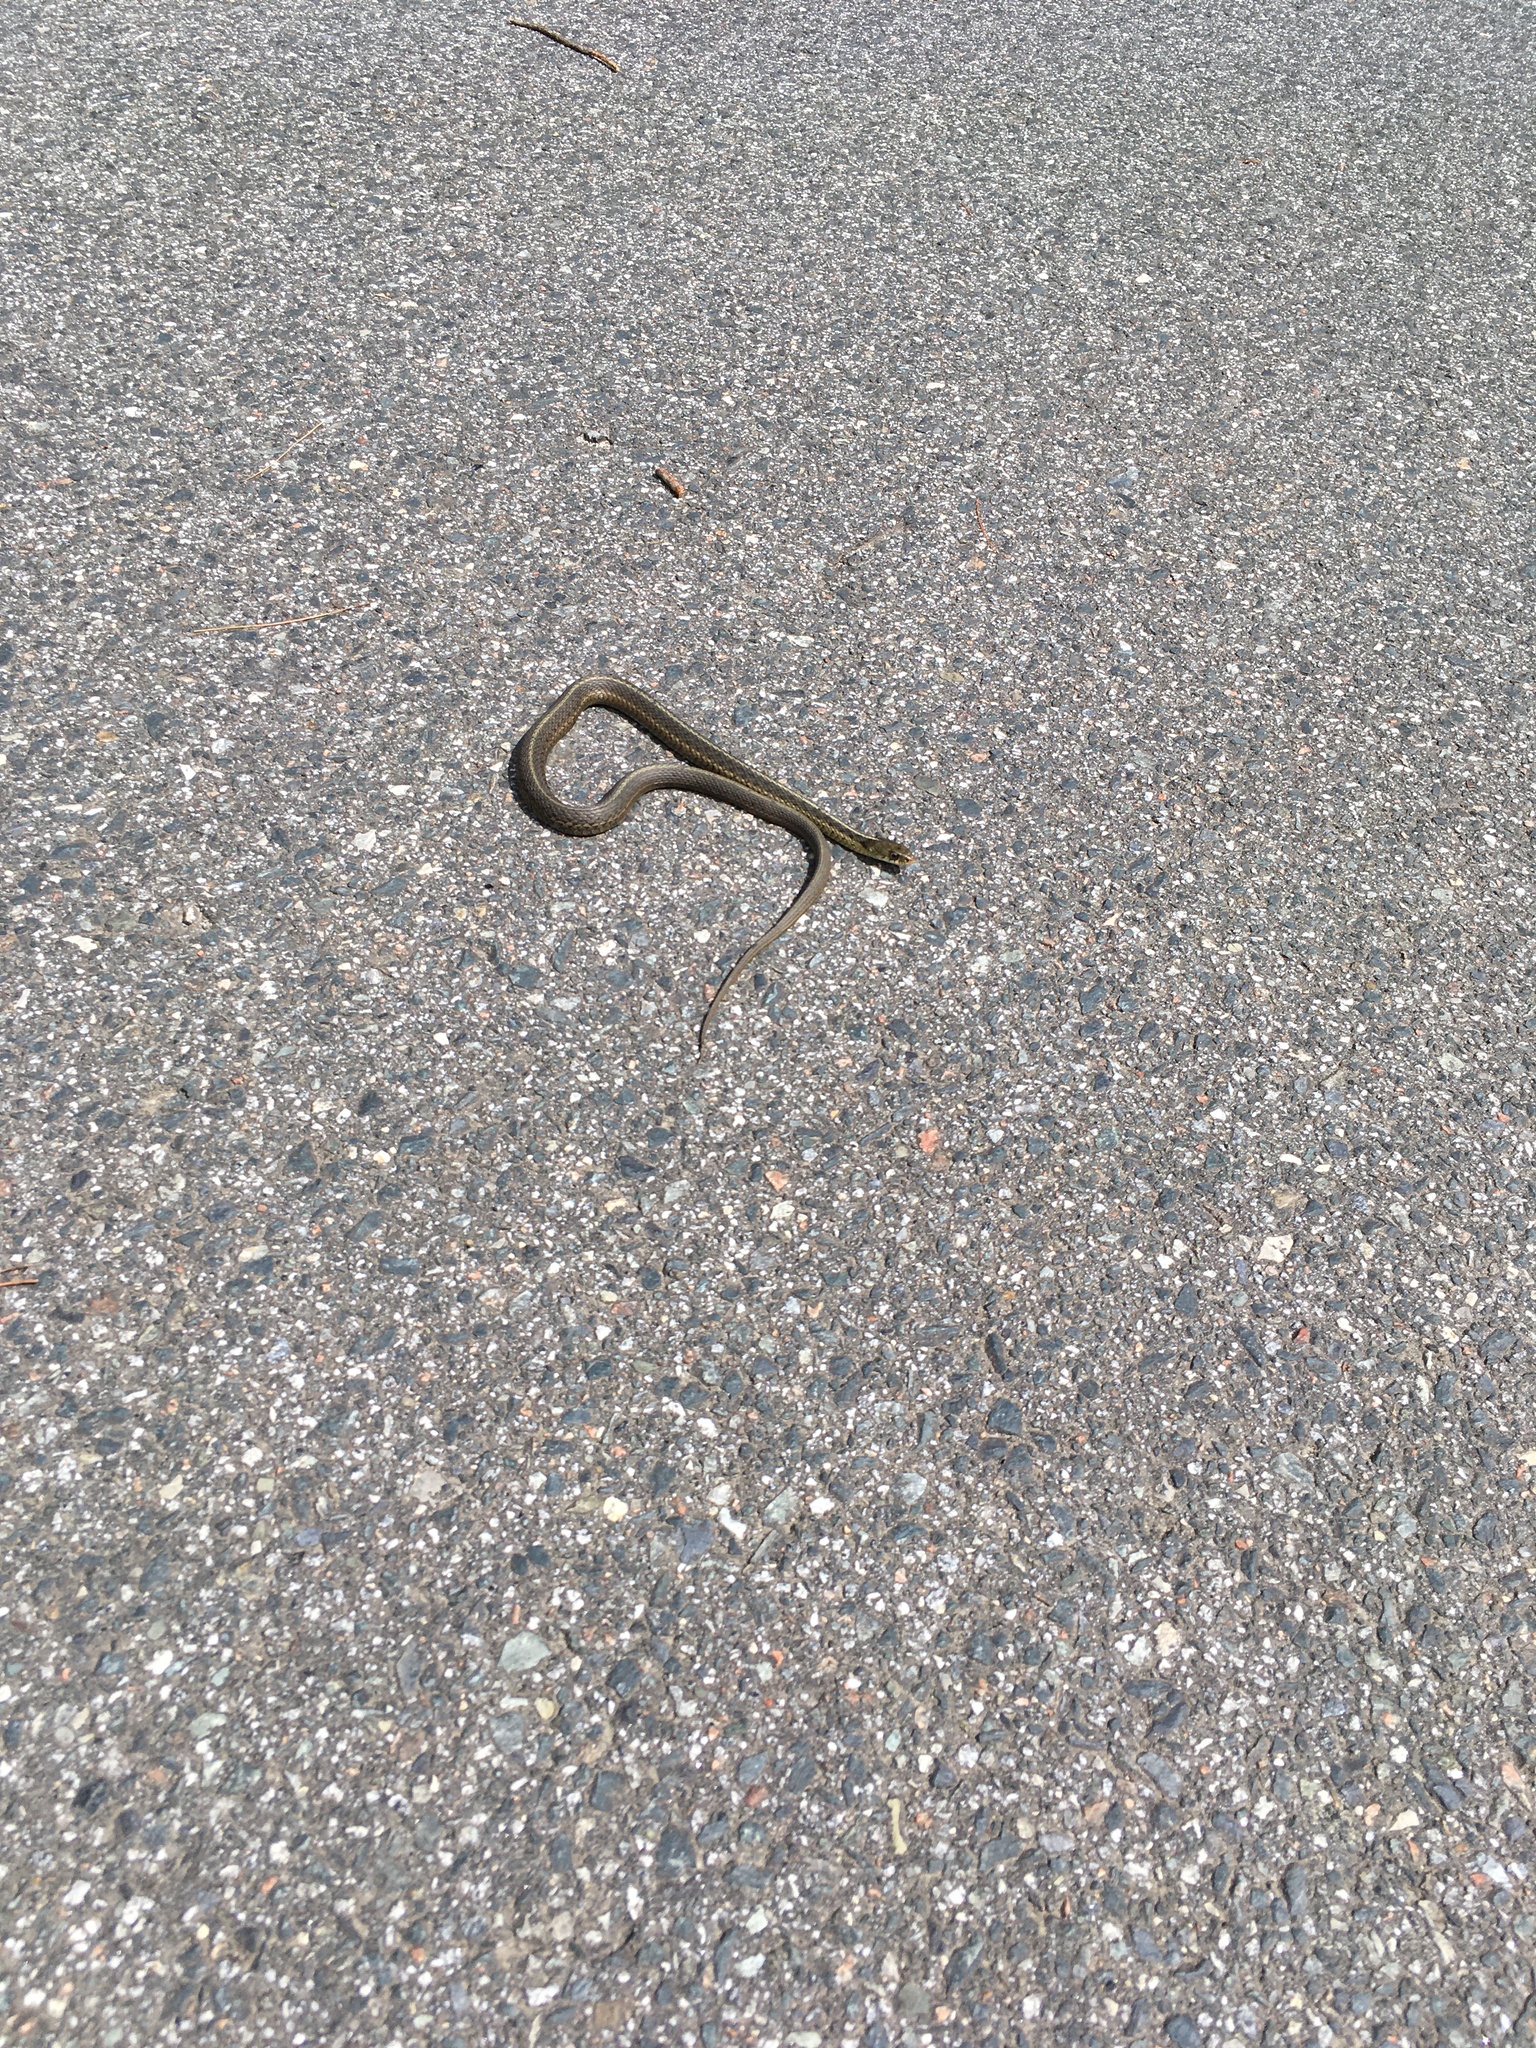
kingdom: Animalia
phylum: Chordata
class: Squamata
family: Colubridae
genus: Thamnophis
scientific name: Thamnophis sirtalis
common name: Common garter snake
